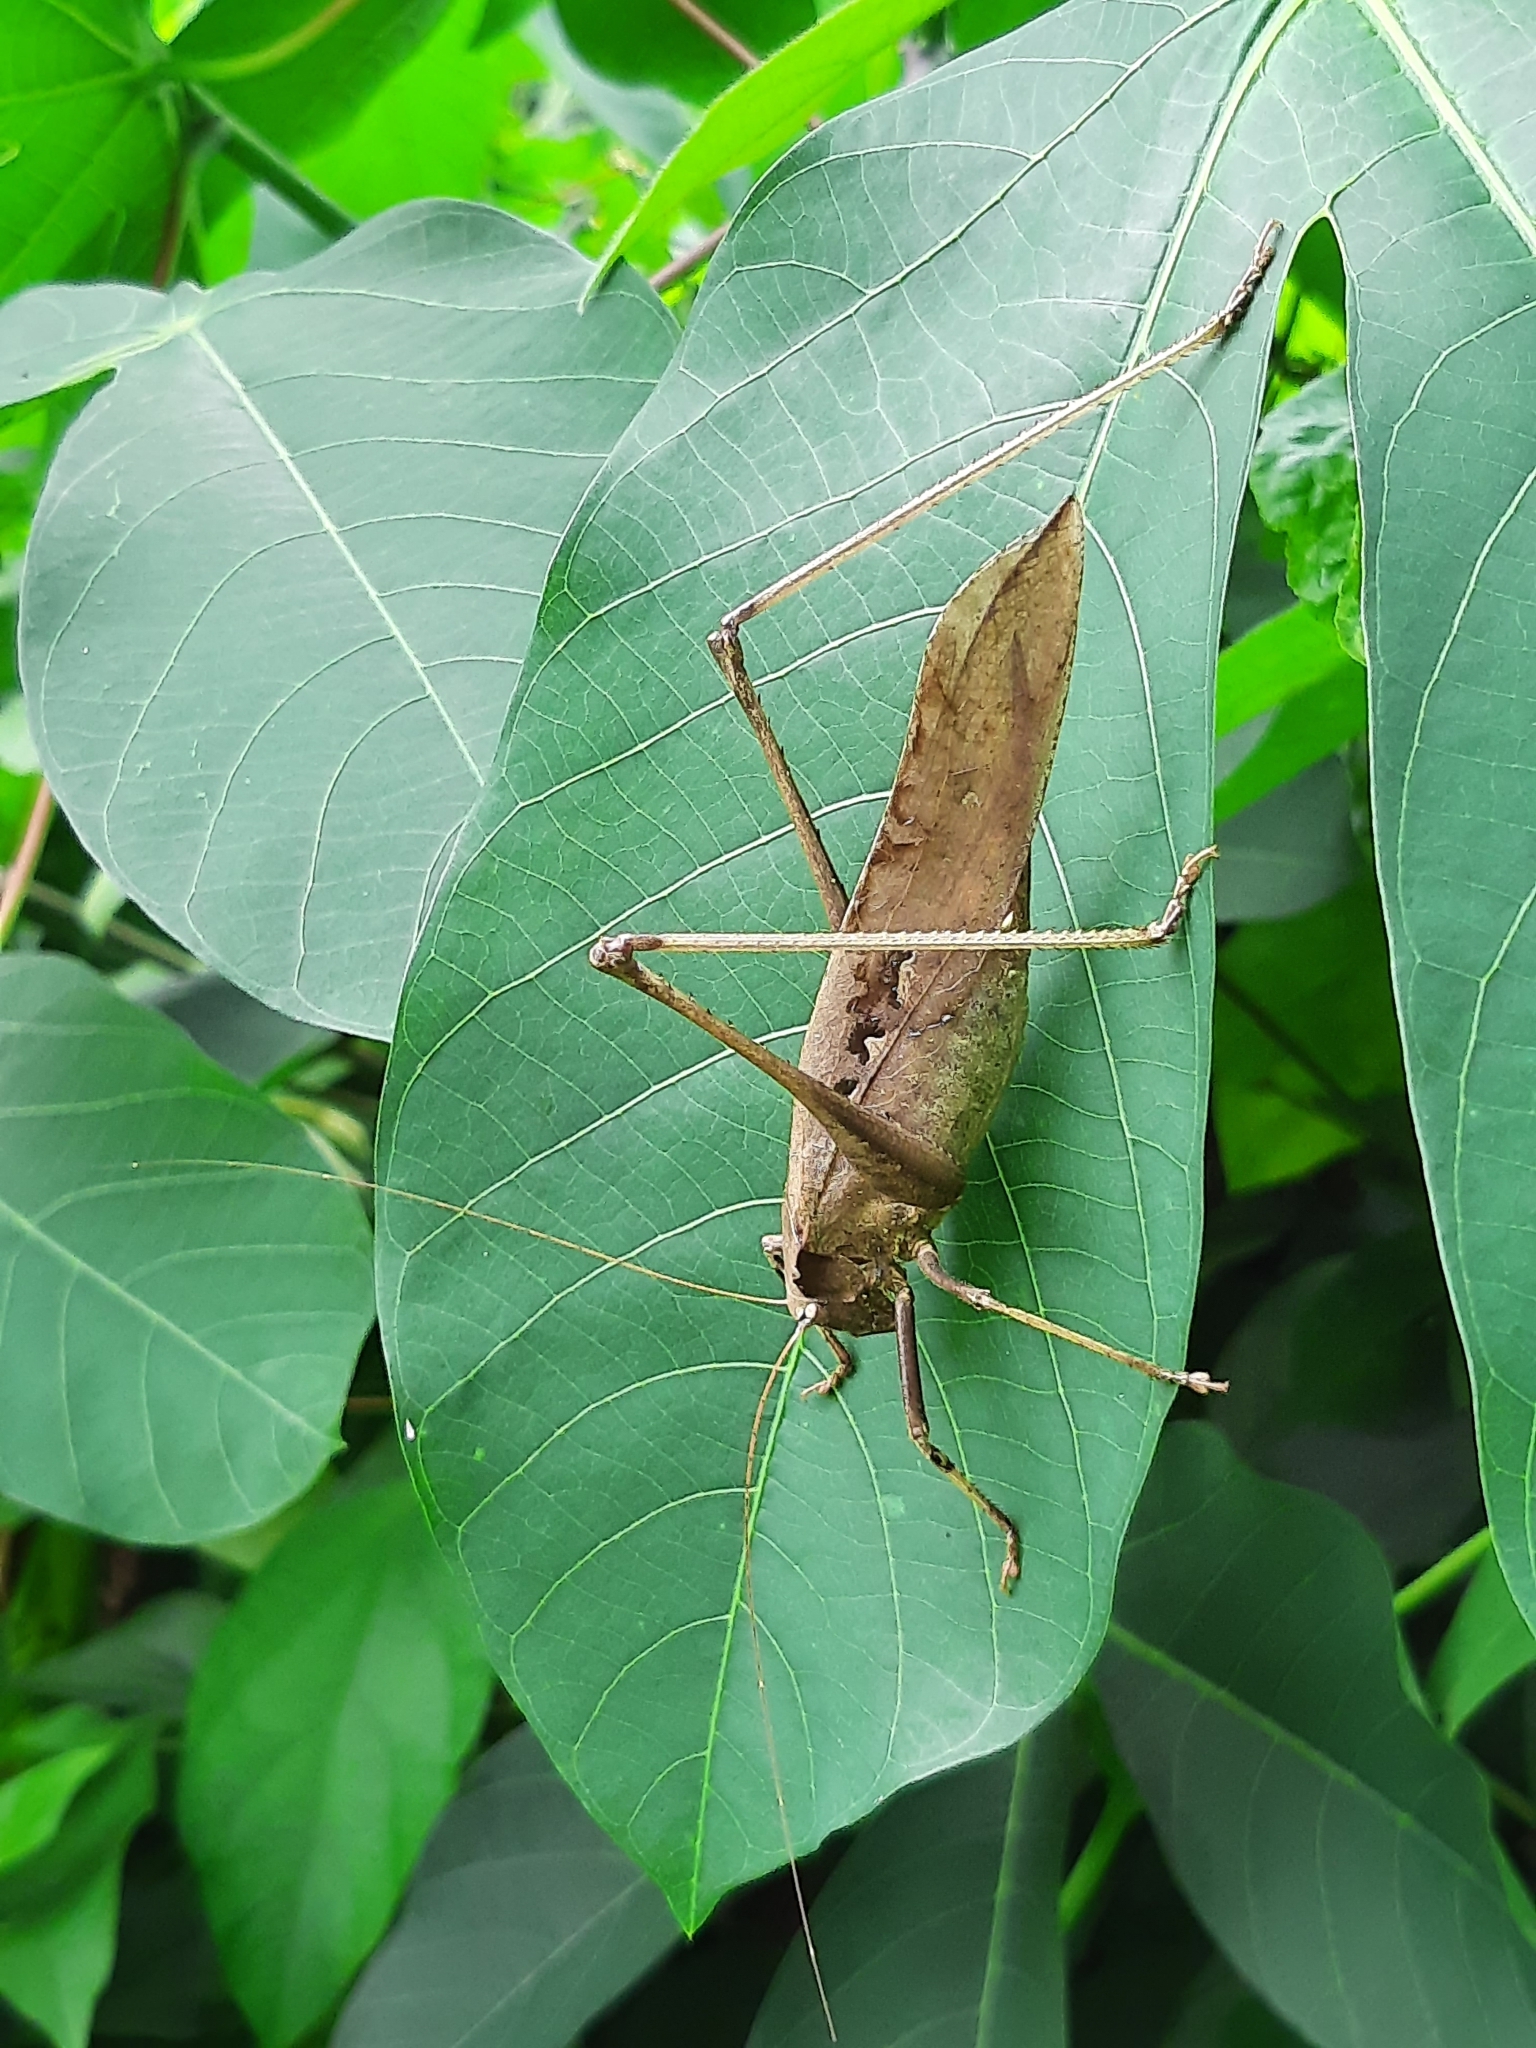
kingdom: Animalia
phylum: Arthropoda
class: Insecta
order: Orthoptera
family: Tettigoniidae
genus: Mecopoda
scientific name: Mecopoda elongata
